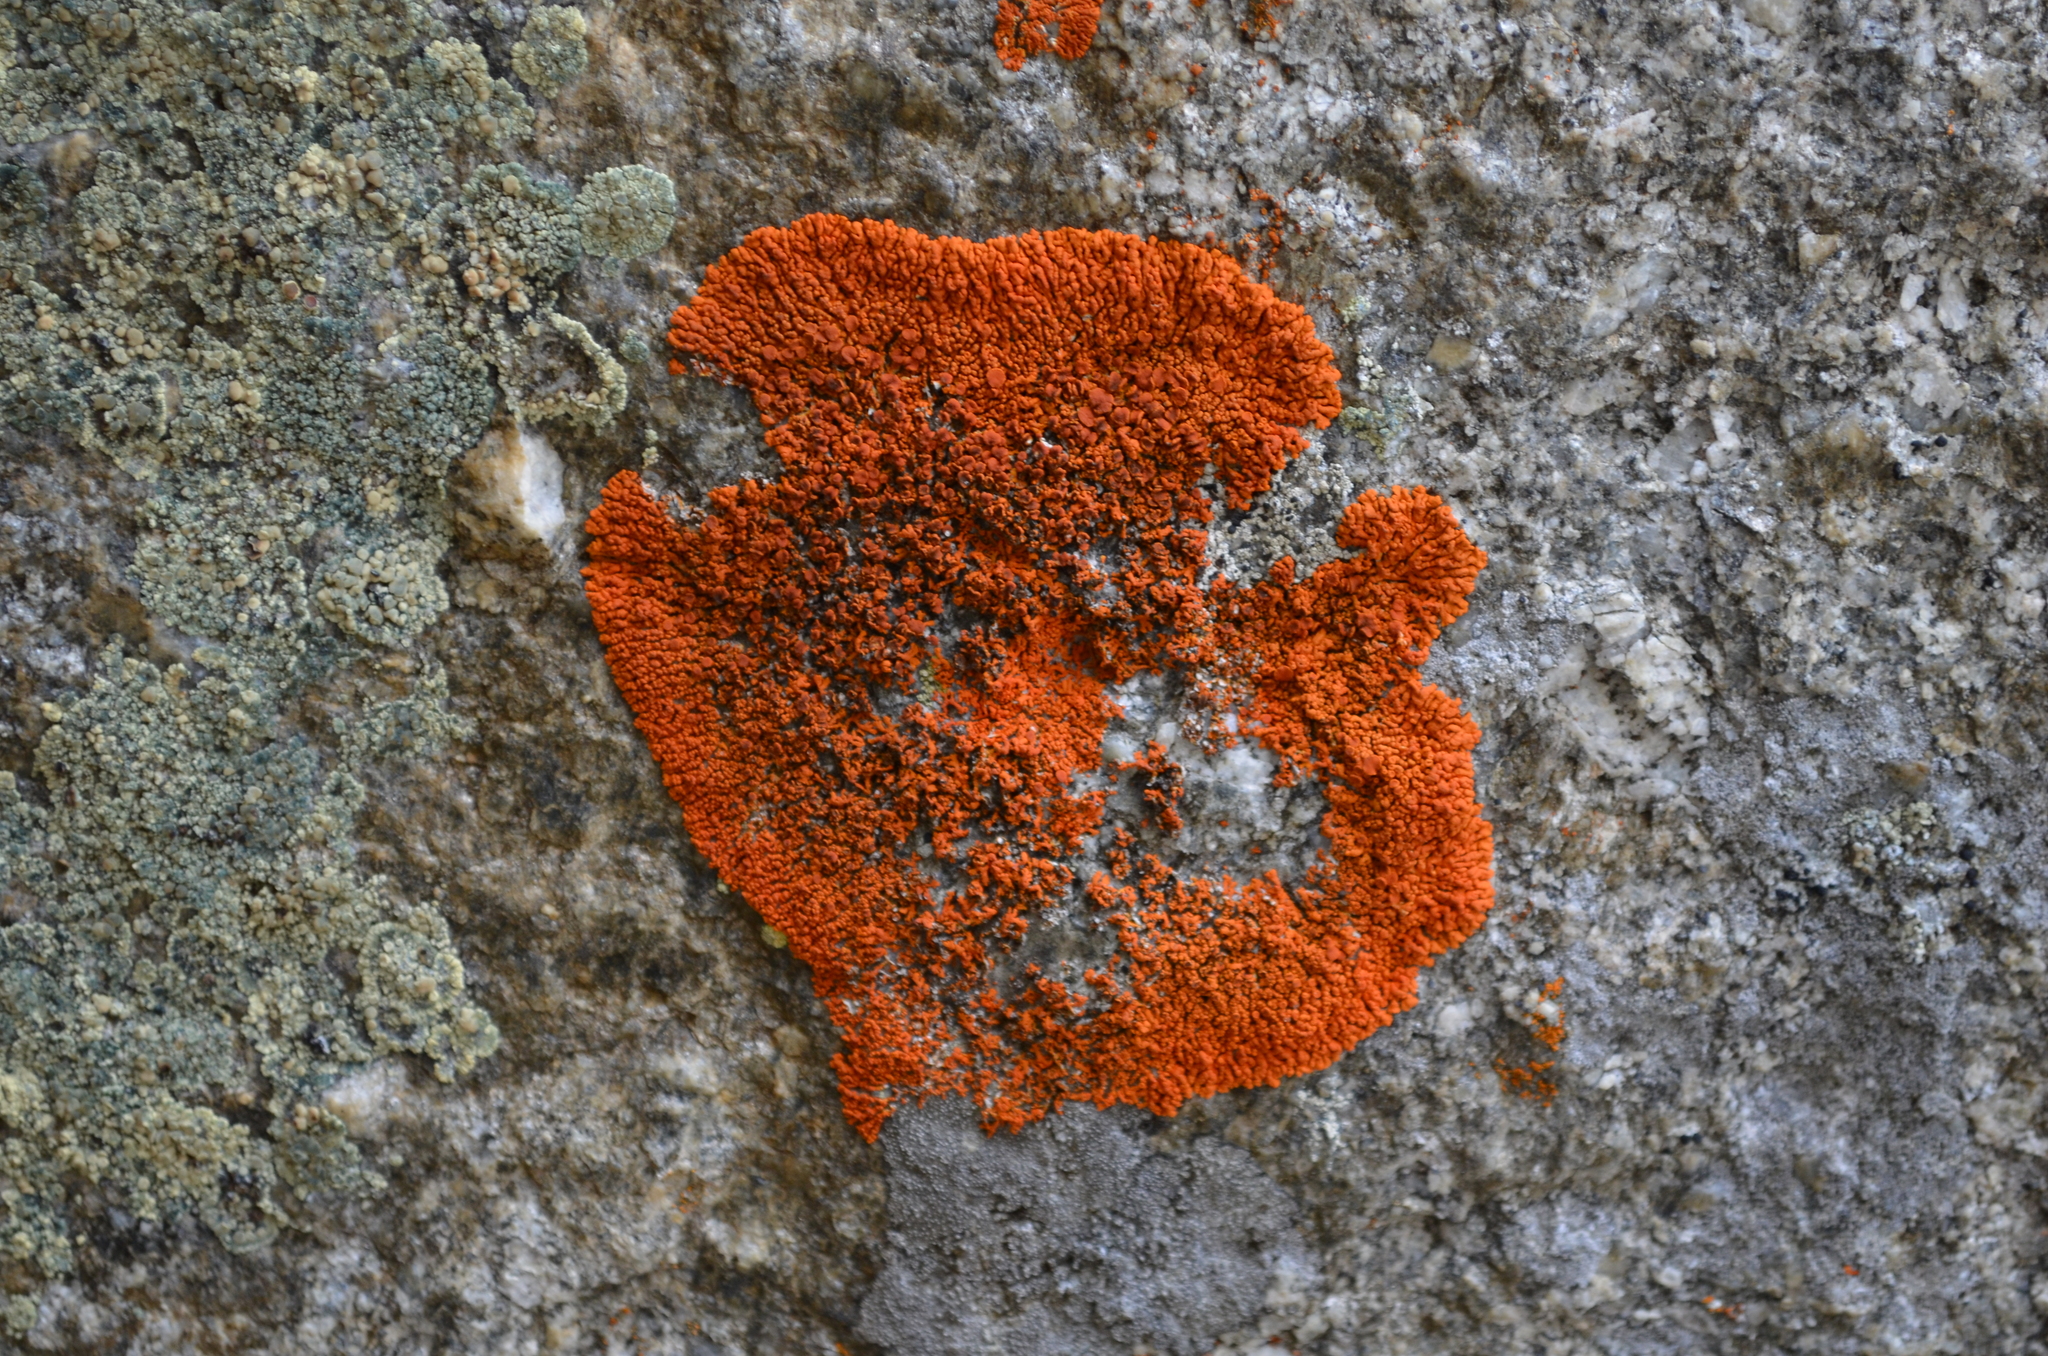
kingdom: Fungi
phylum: Ascomycota
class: Lecanoromycetes
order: Teloschistales
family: Teloschistaceae
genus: Xanthoria
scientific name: Xanthoria elegans
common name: Elegant sunburst lichen
